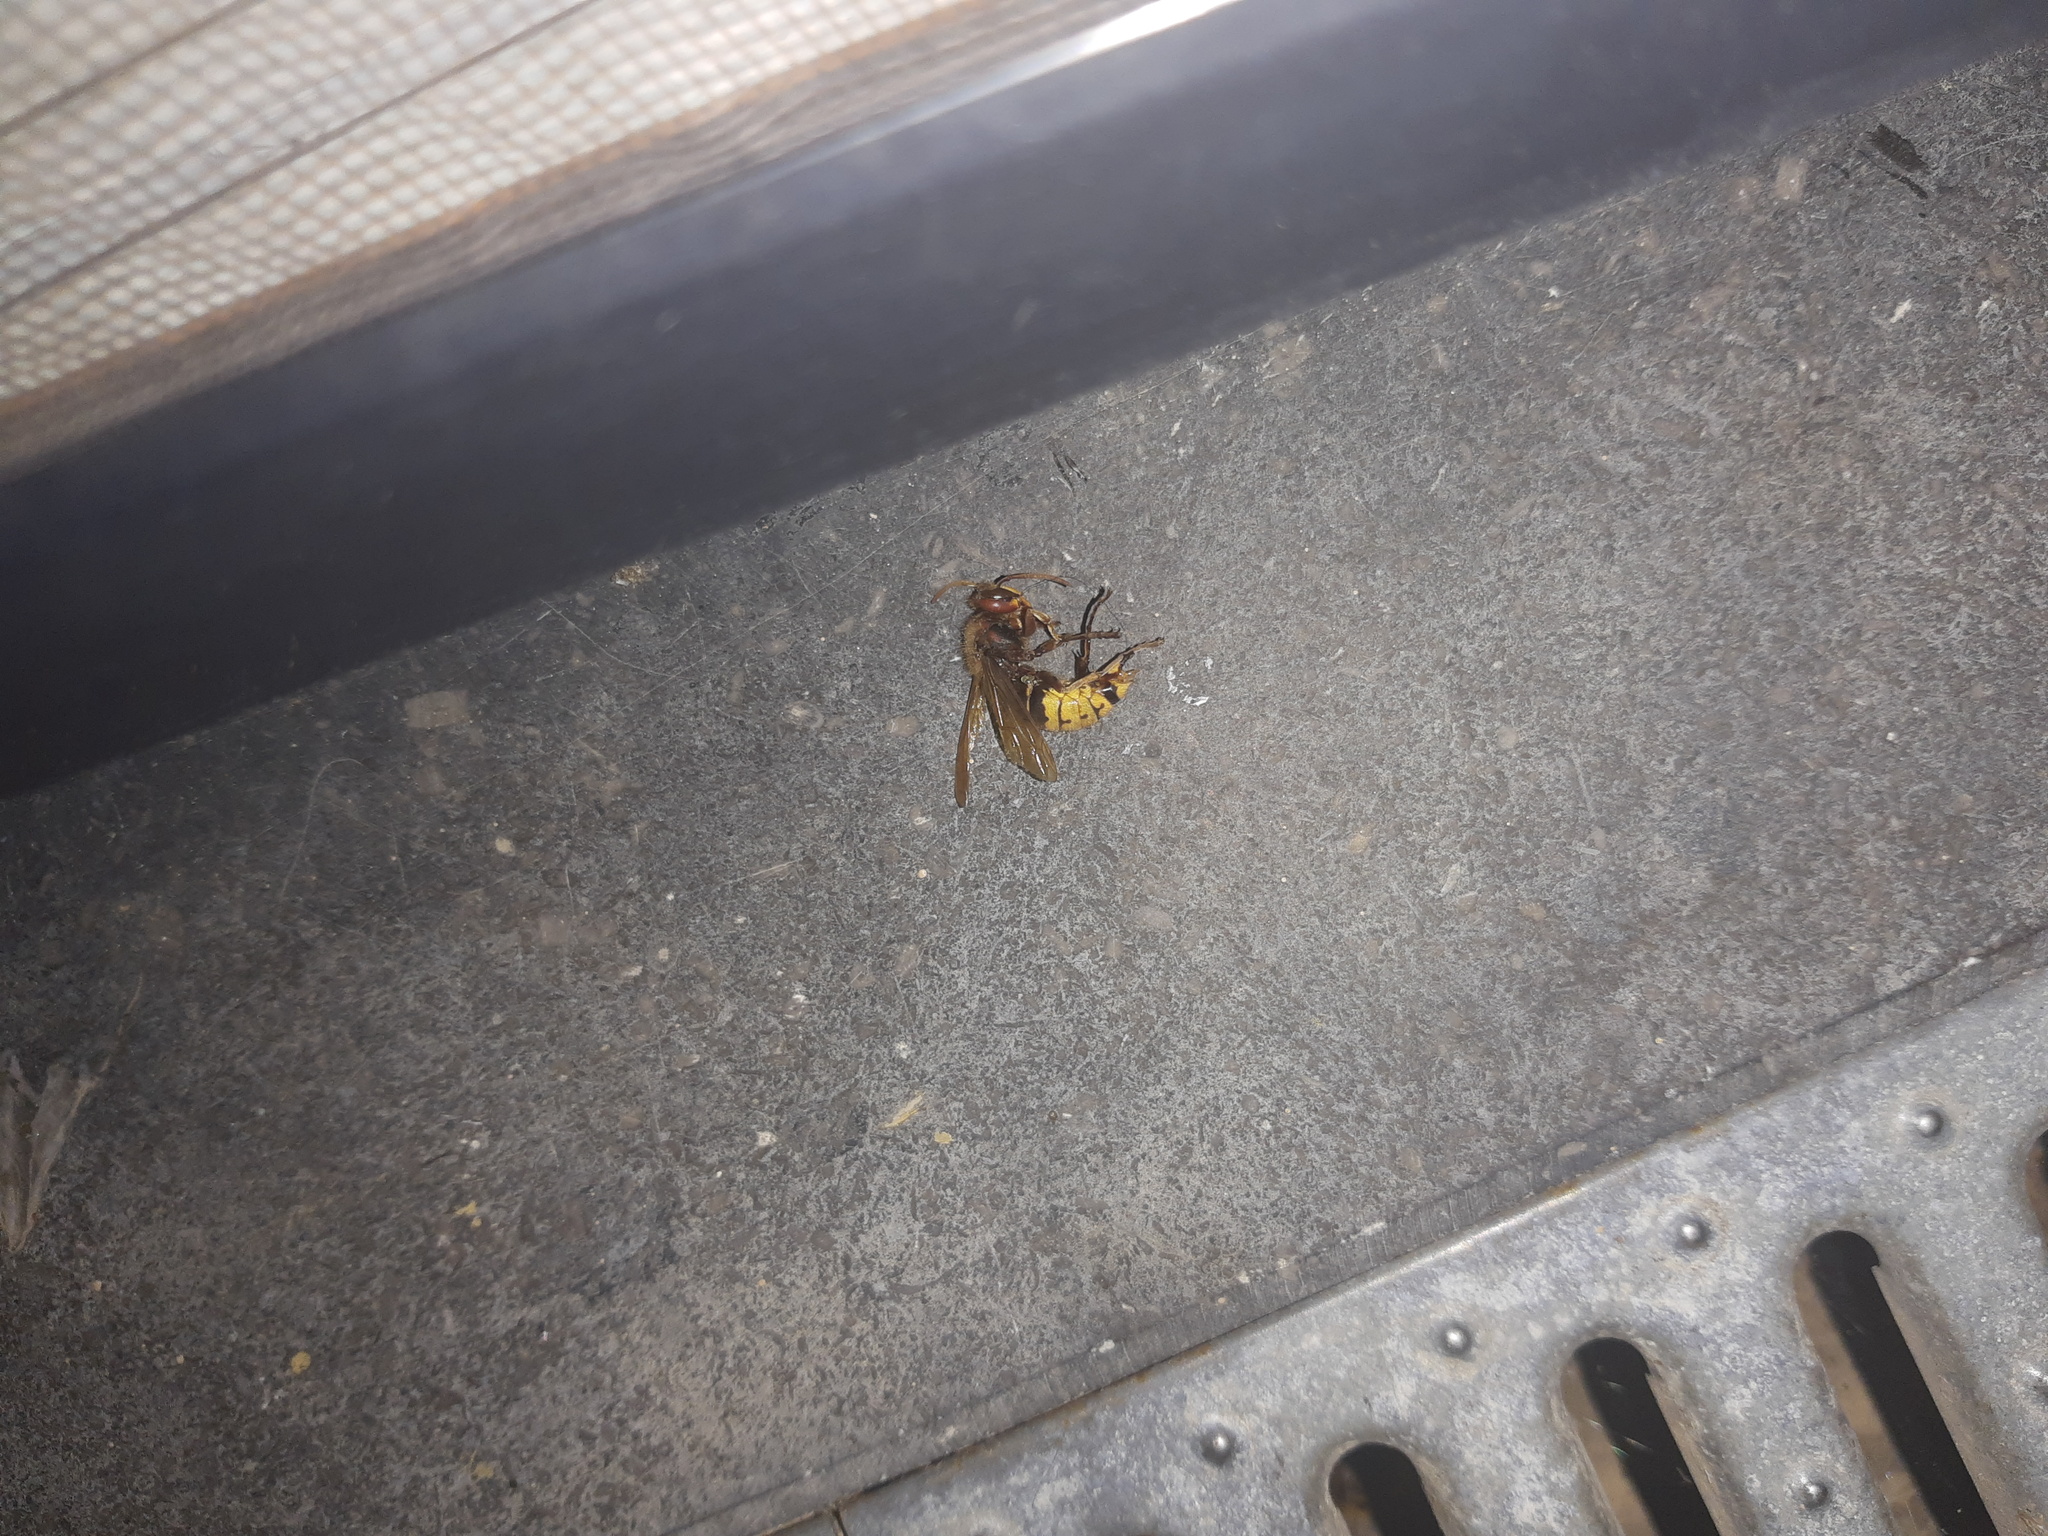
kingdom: Animalia
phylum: Arthropoda
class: Insecta
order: Hymenoptera
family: Vespidae
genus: Vespa
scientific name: Vespa crabro
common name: Hornet
